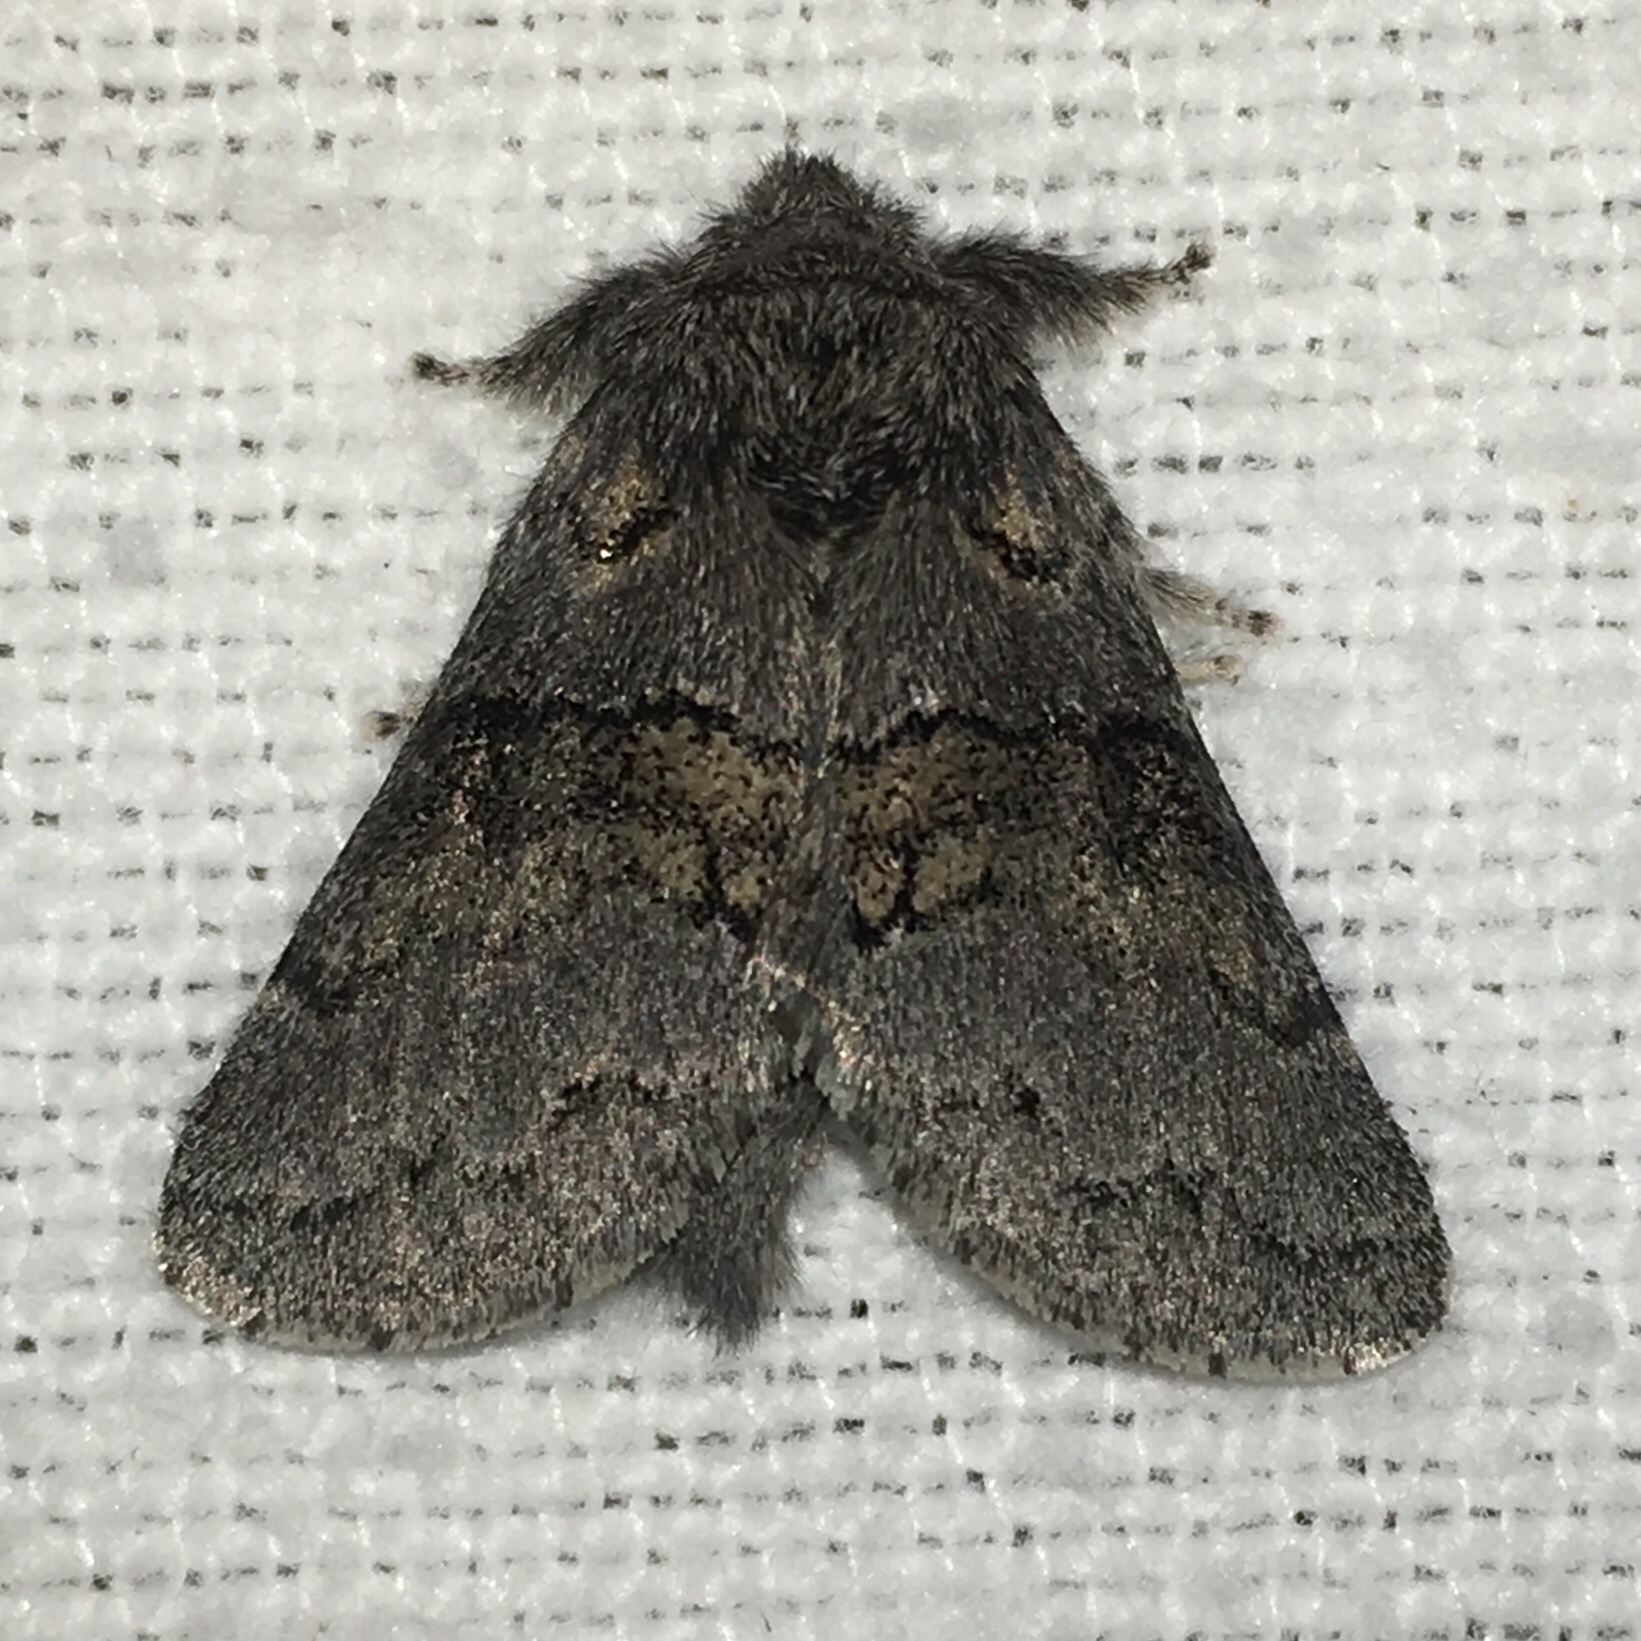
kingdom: Animalia
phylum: Arthropoda
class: Insecta
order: Lepidoptera
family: Notodontidae
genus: Gluphisia
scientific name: Gluphisia septentrionis
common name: Common gluphisia
